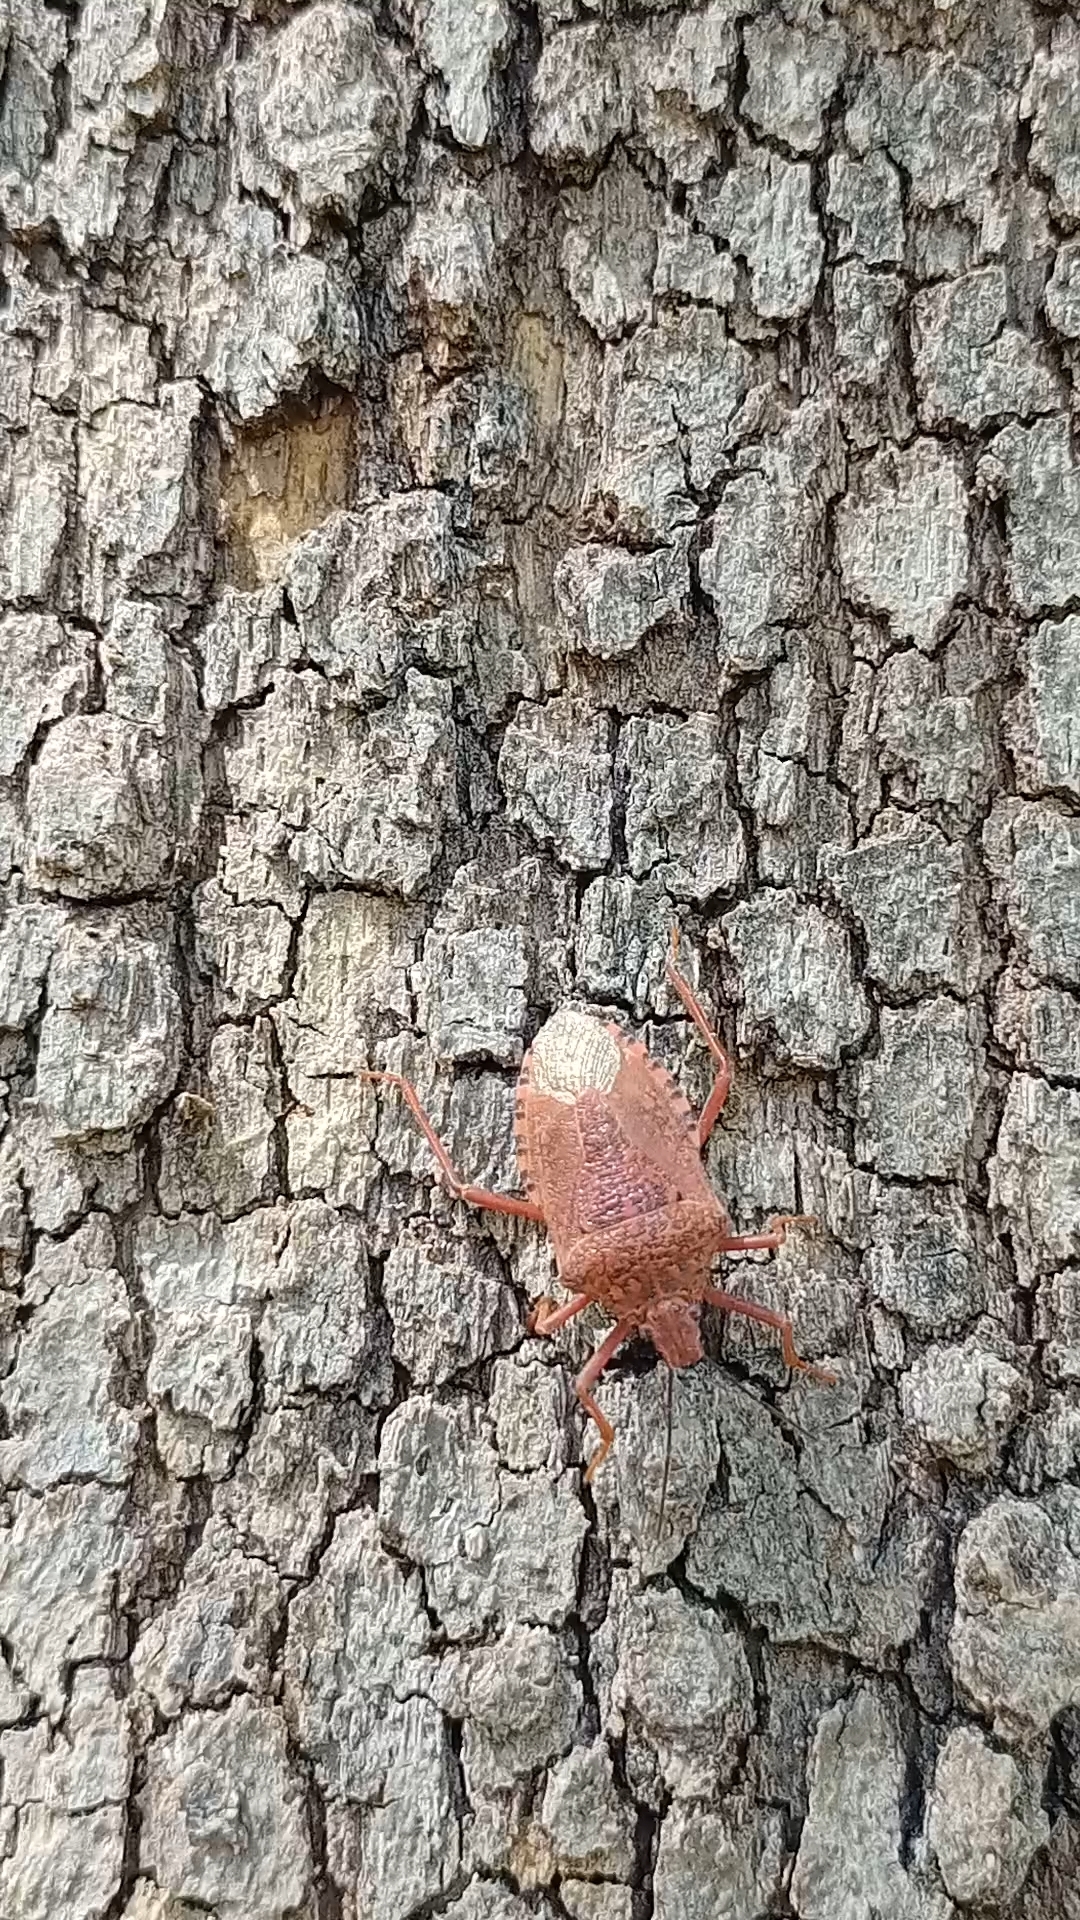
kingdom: Animalia
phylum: Arthropoda
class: Insecta
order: Hemiptera
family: Pentatomidae
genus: Apodiphus
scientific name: Apodiphus
